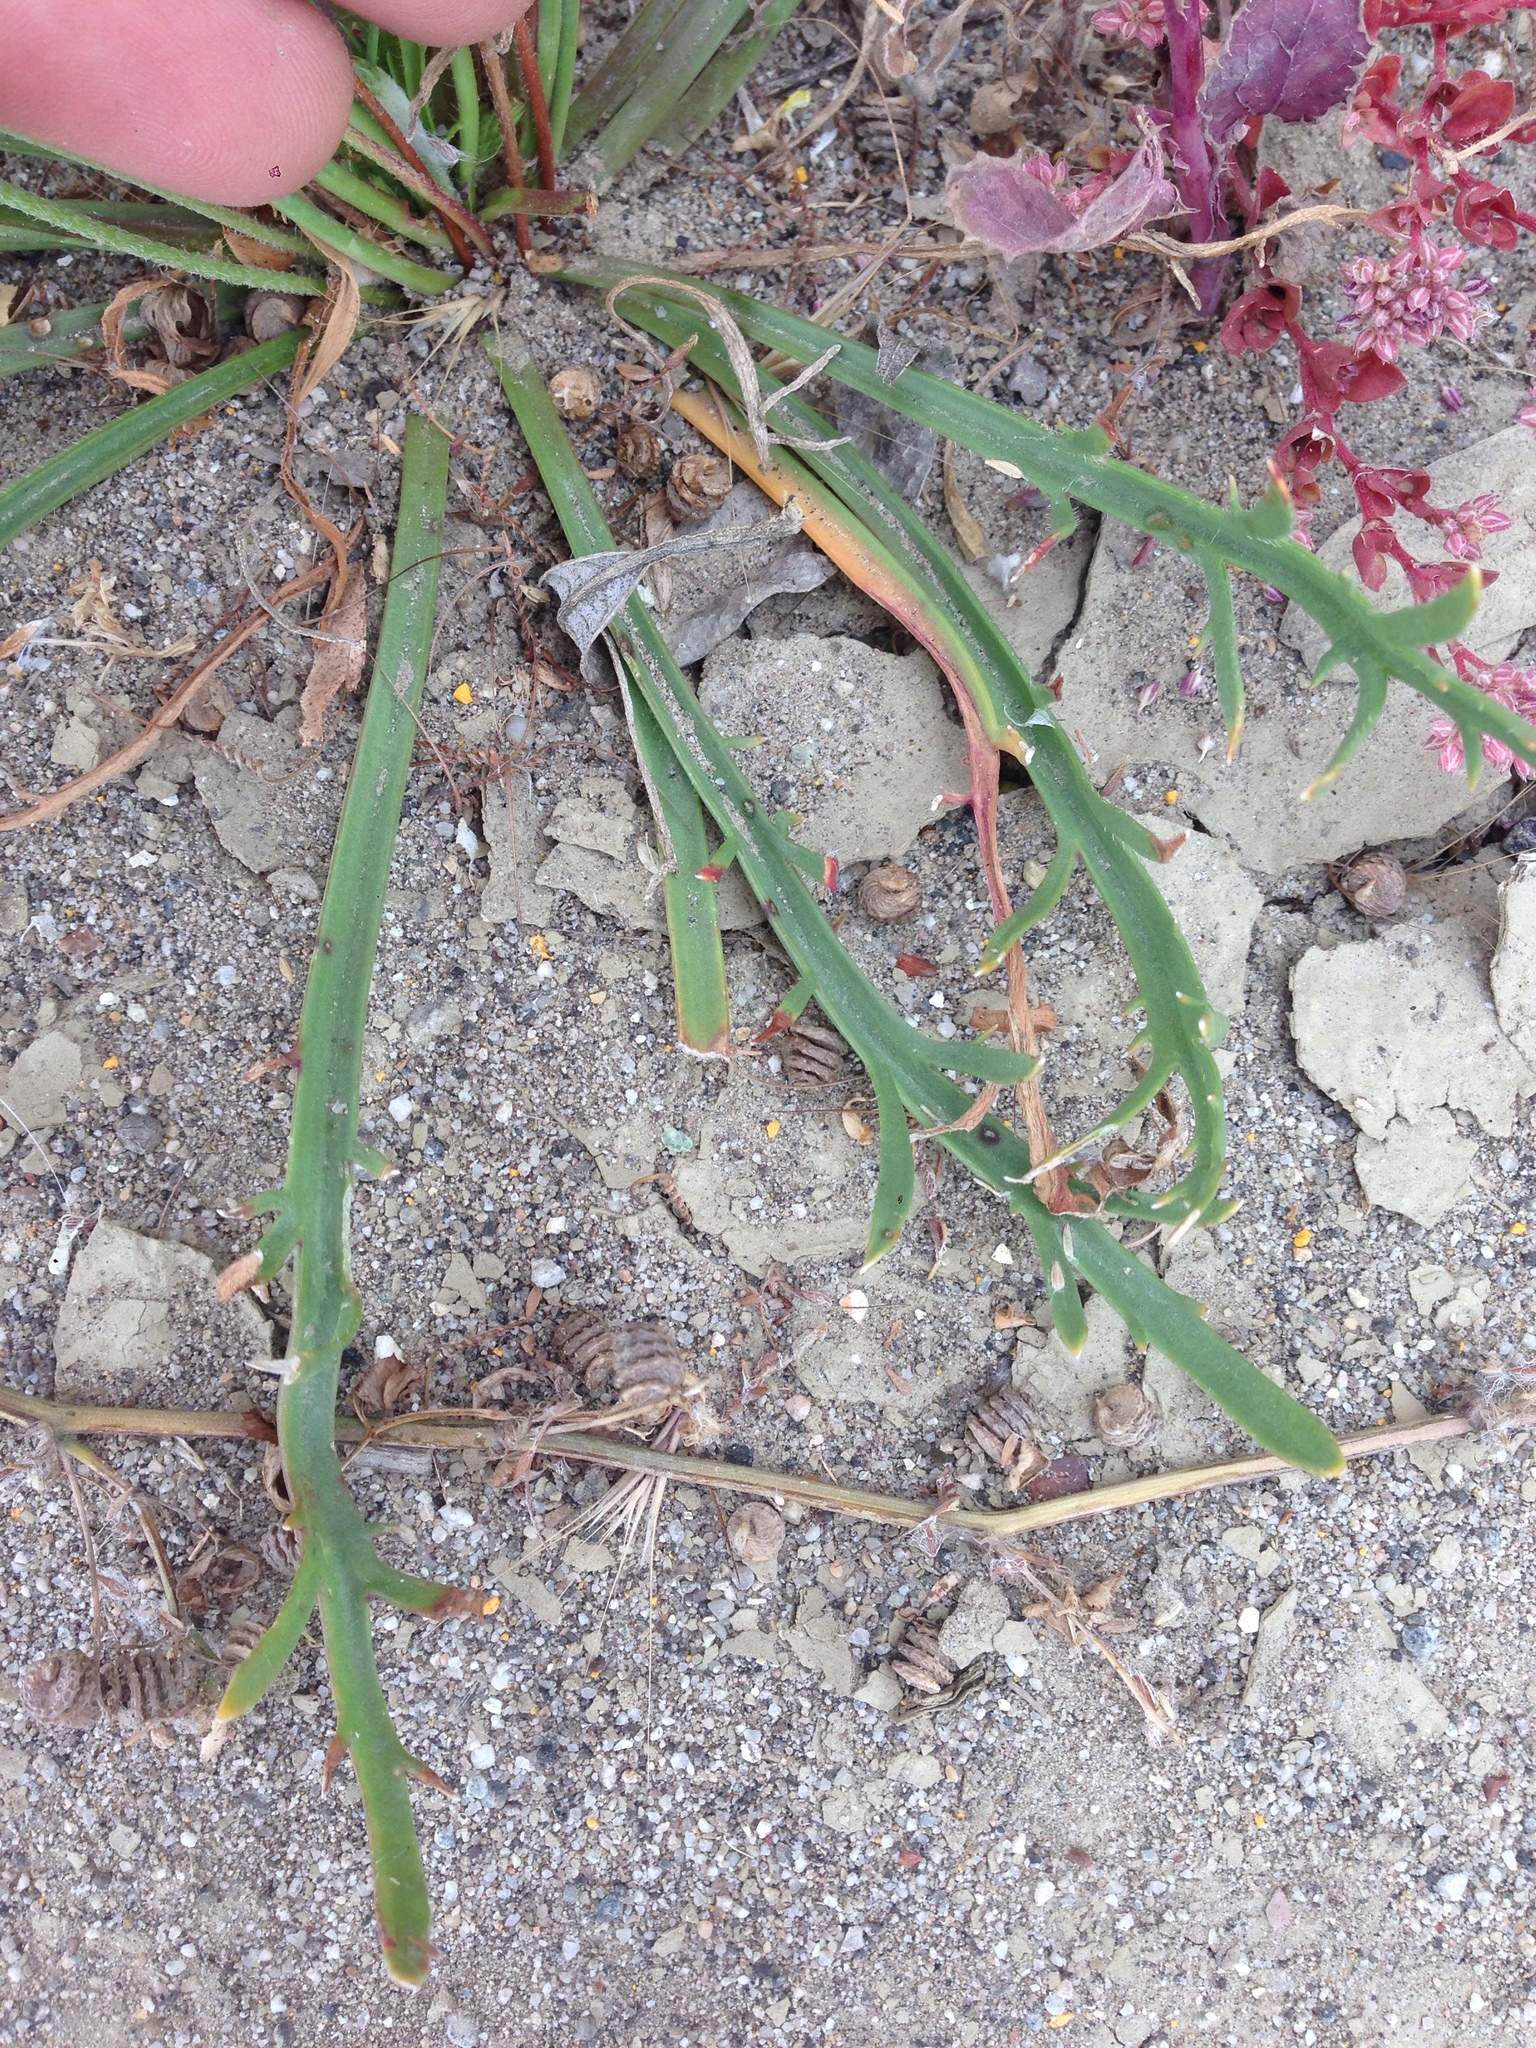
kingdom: Plantae
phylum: Tracheophyta
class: Magnoliopsida
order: Lamiales
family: Plantaginaceae
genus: Plantago
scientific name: Plantago coronopus
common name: Buck's-horn plantain
